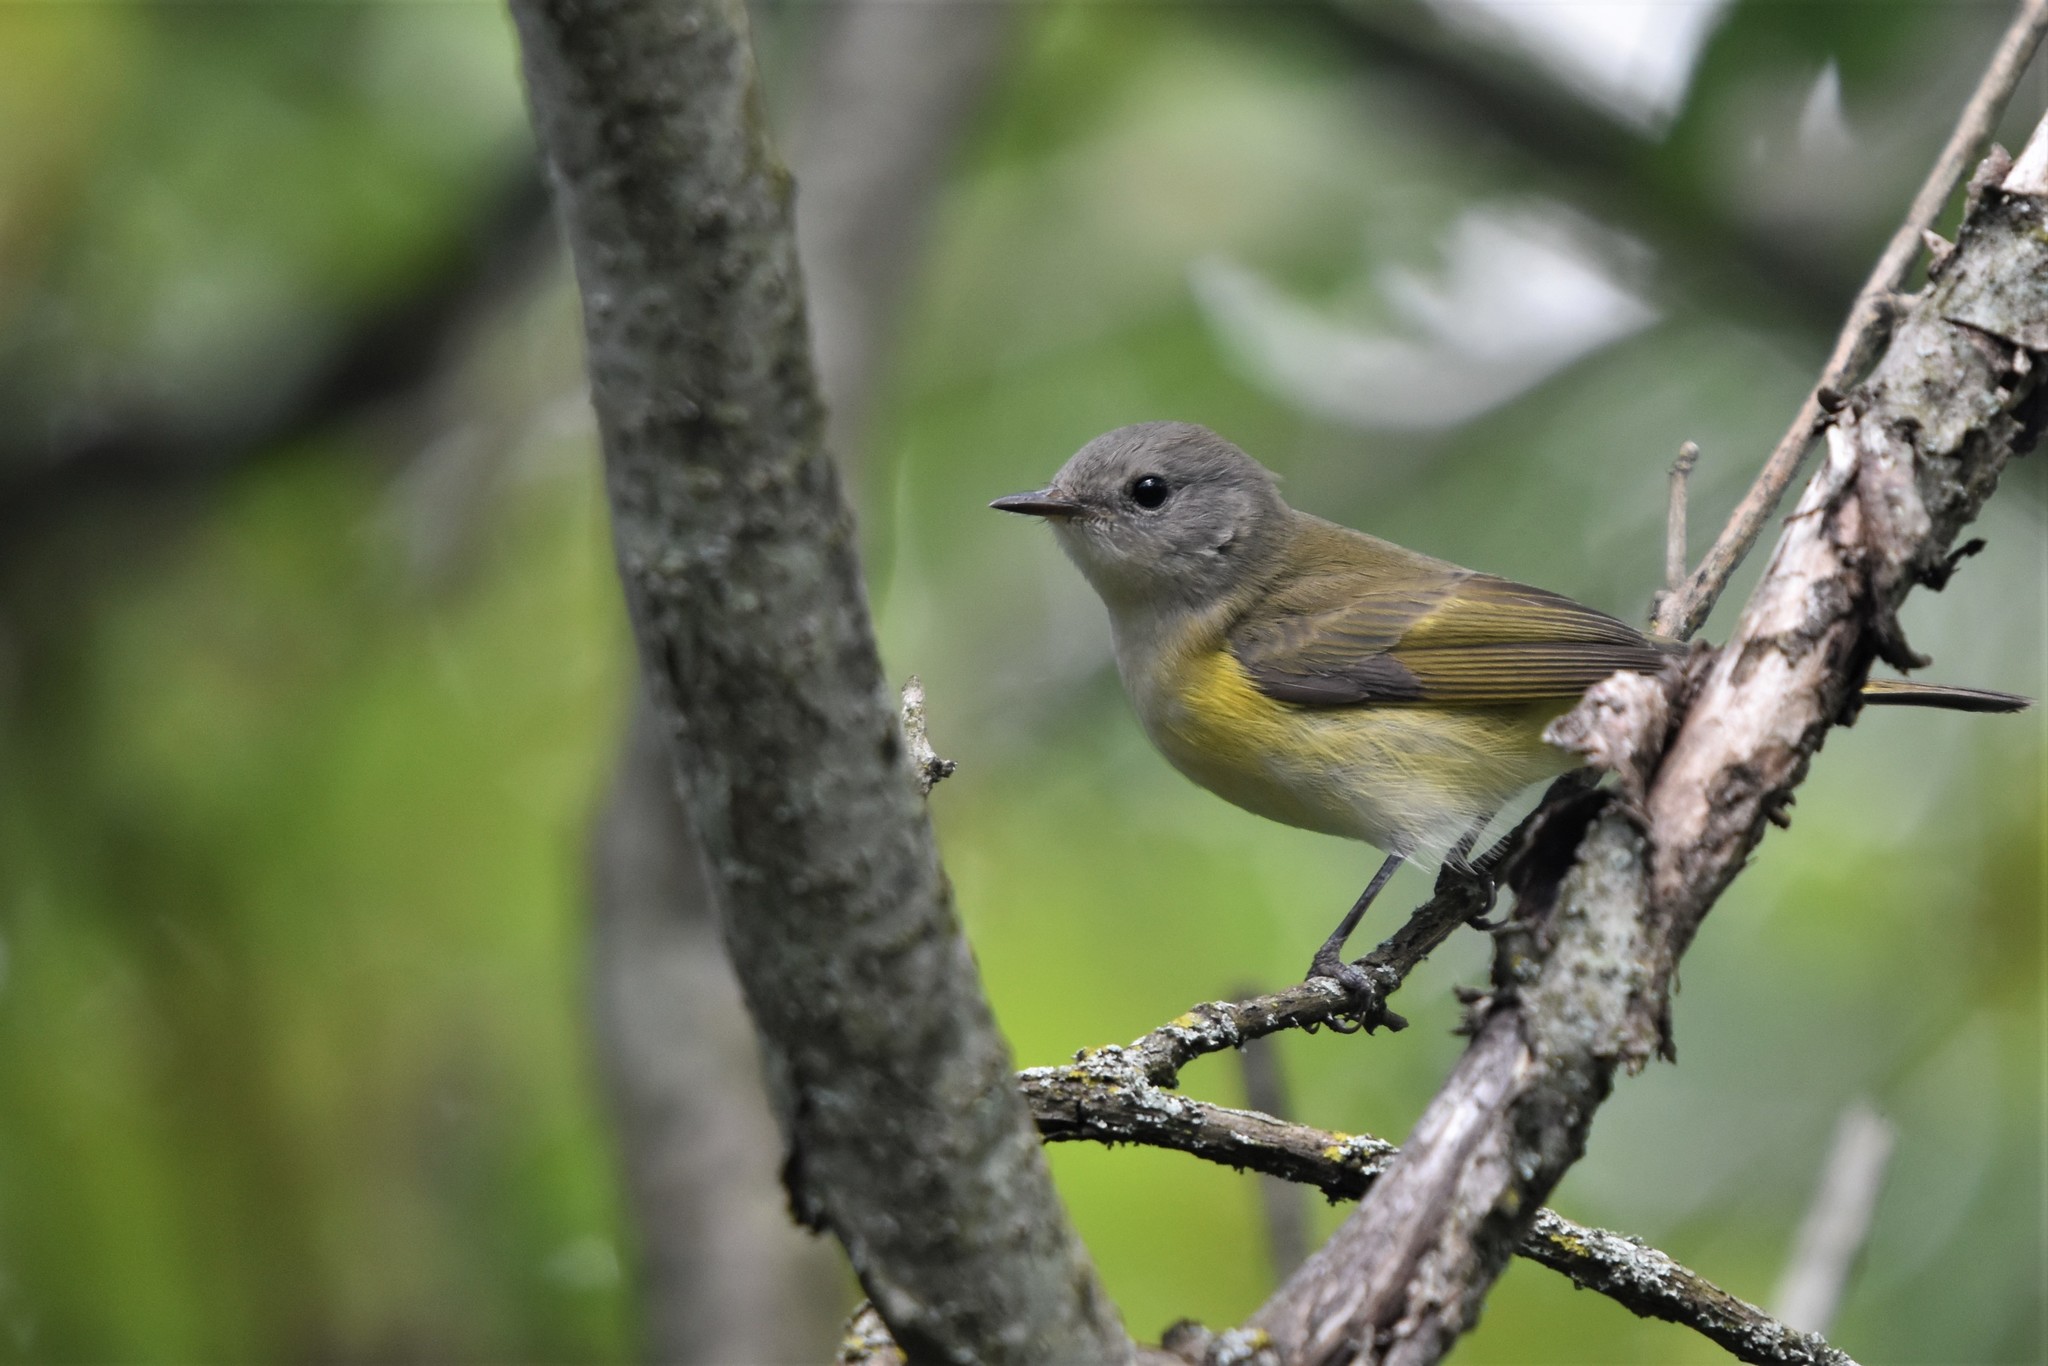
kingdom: Animalia
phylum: Chordata
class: Aves
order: Passeriformes
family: Parulidae
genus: Setophaga
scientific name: Setophaga ruticilla
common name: American redstart
